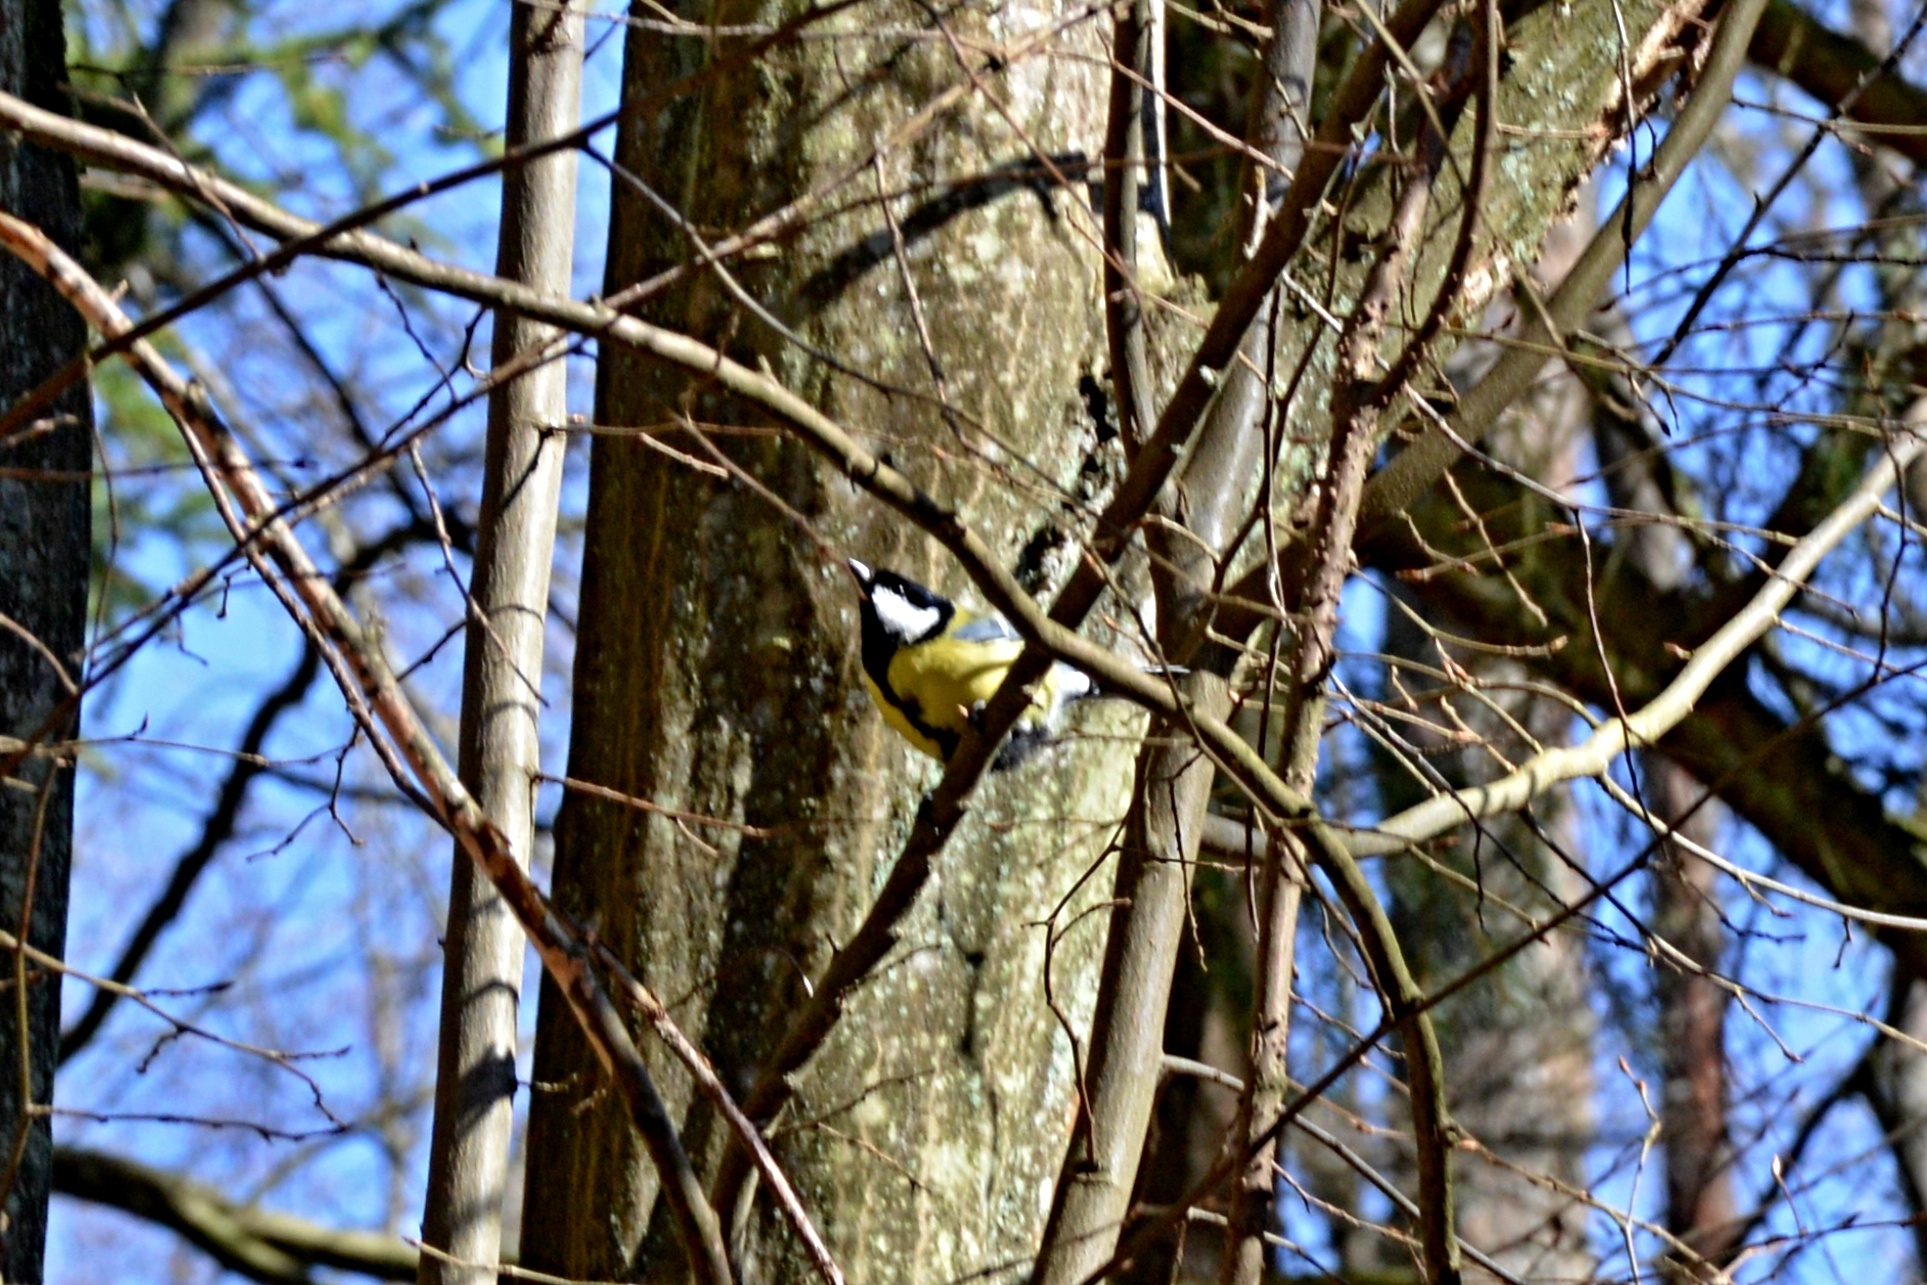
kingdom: Animalia
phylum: Chordata
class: Aves
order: Passeriformes
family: Paridae
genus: Parus
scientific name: Parus major
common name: Great tit
